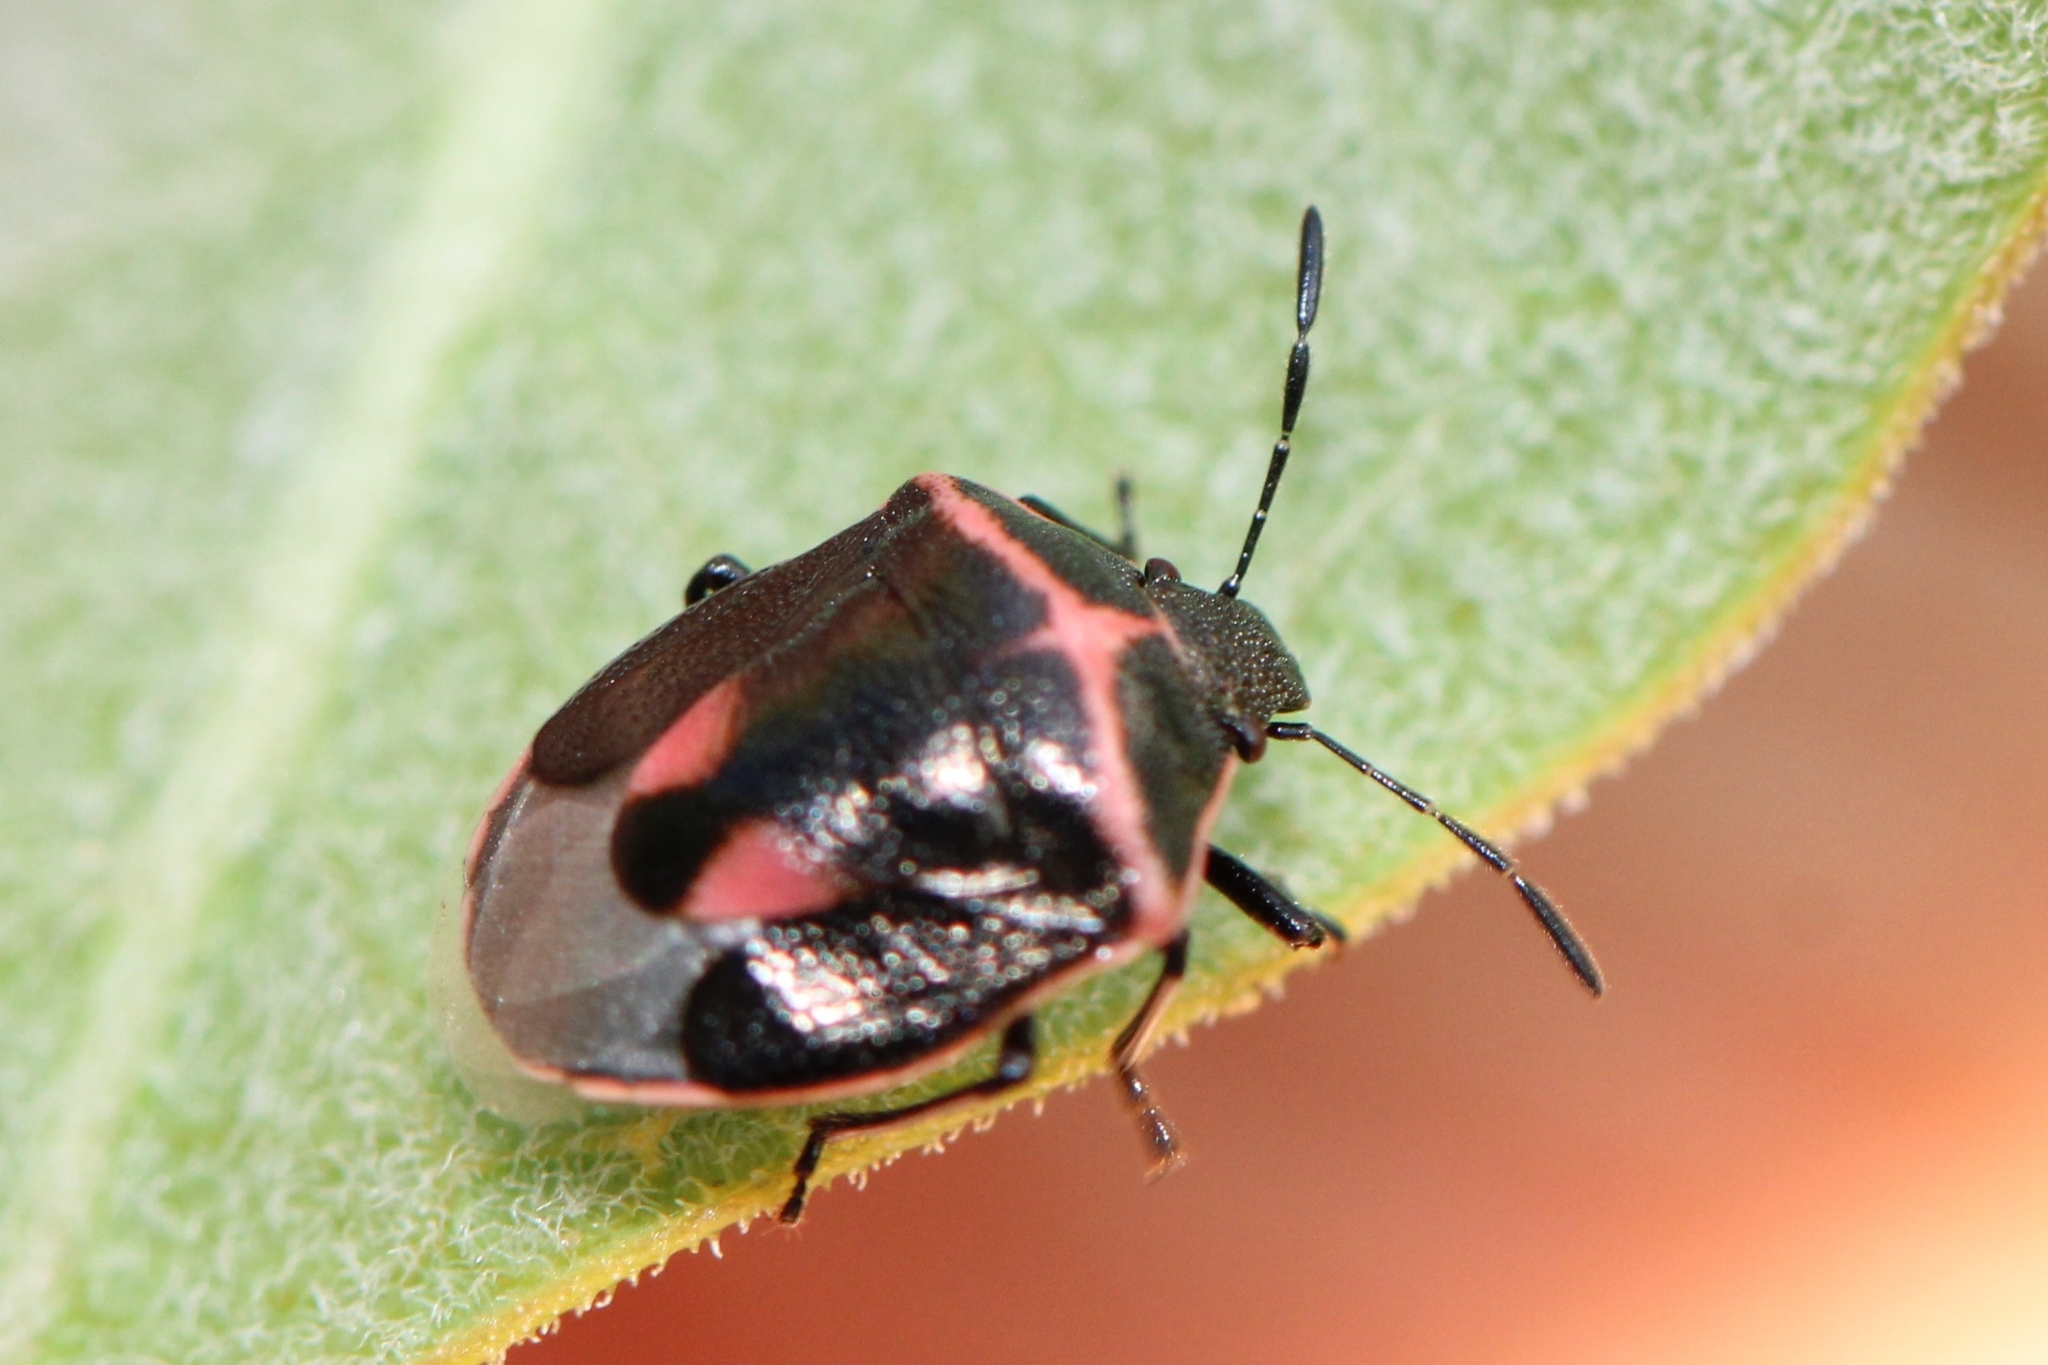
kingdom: Animalia
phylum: Arthropoda
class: Insecta
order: Hemiptera
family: Pentatomidae
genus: Cosmopepla
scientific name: Cosmopepla lintneriana
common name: Twice-stabbed stink bug
